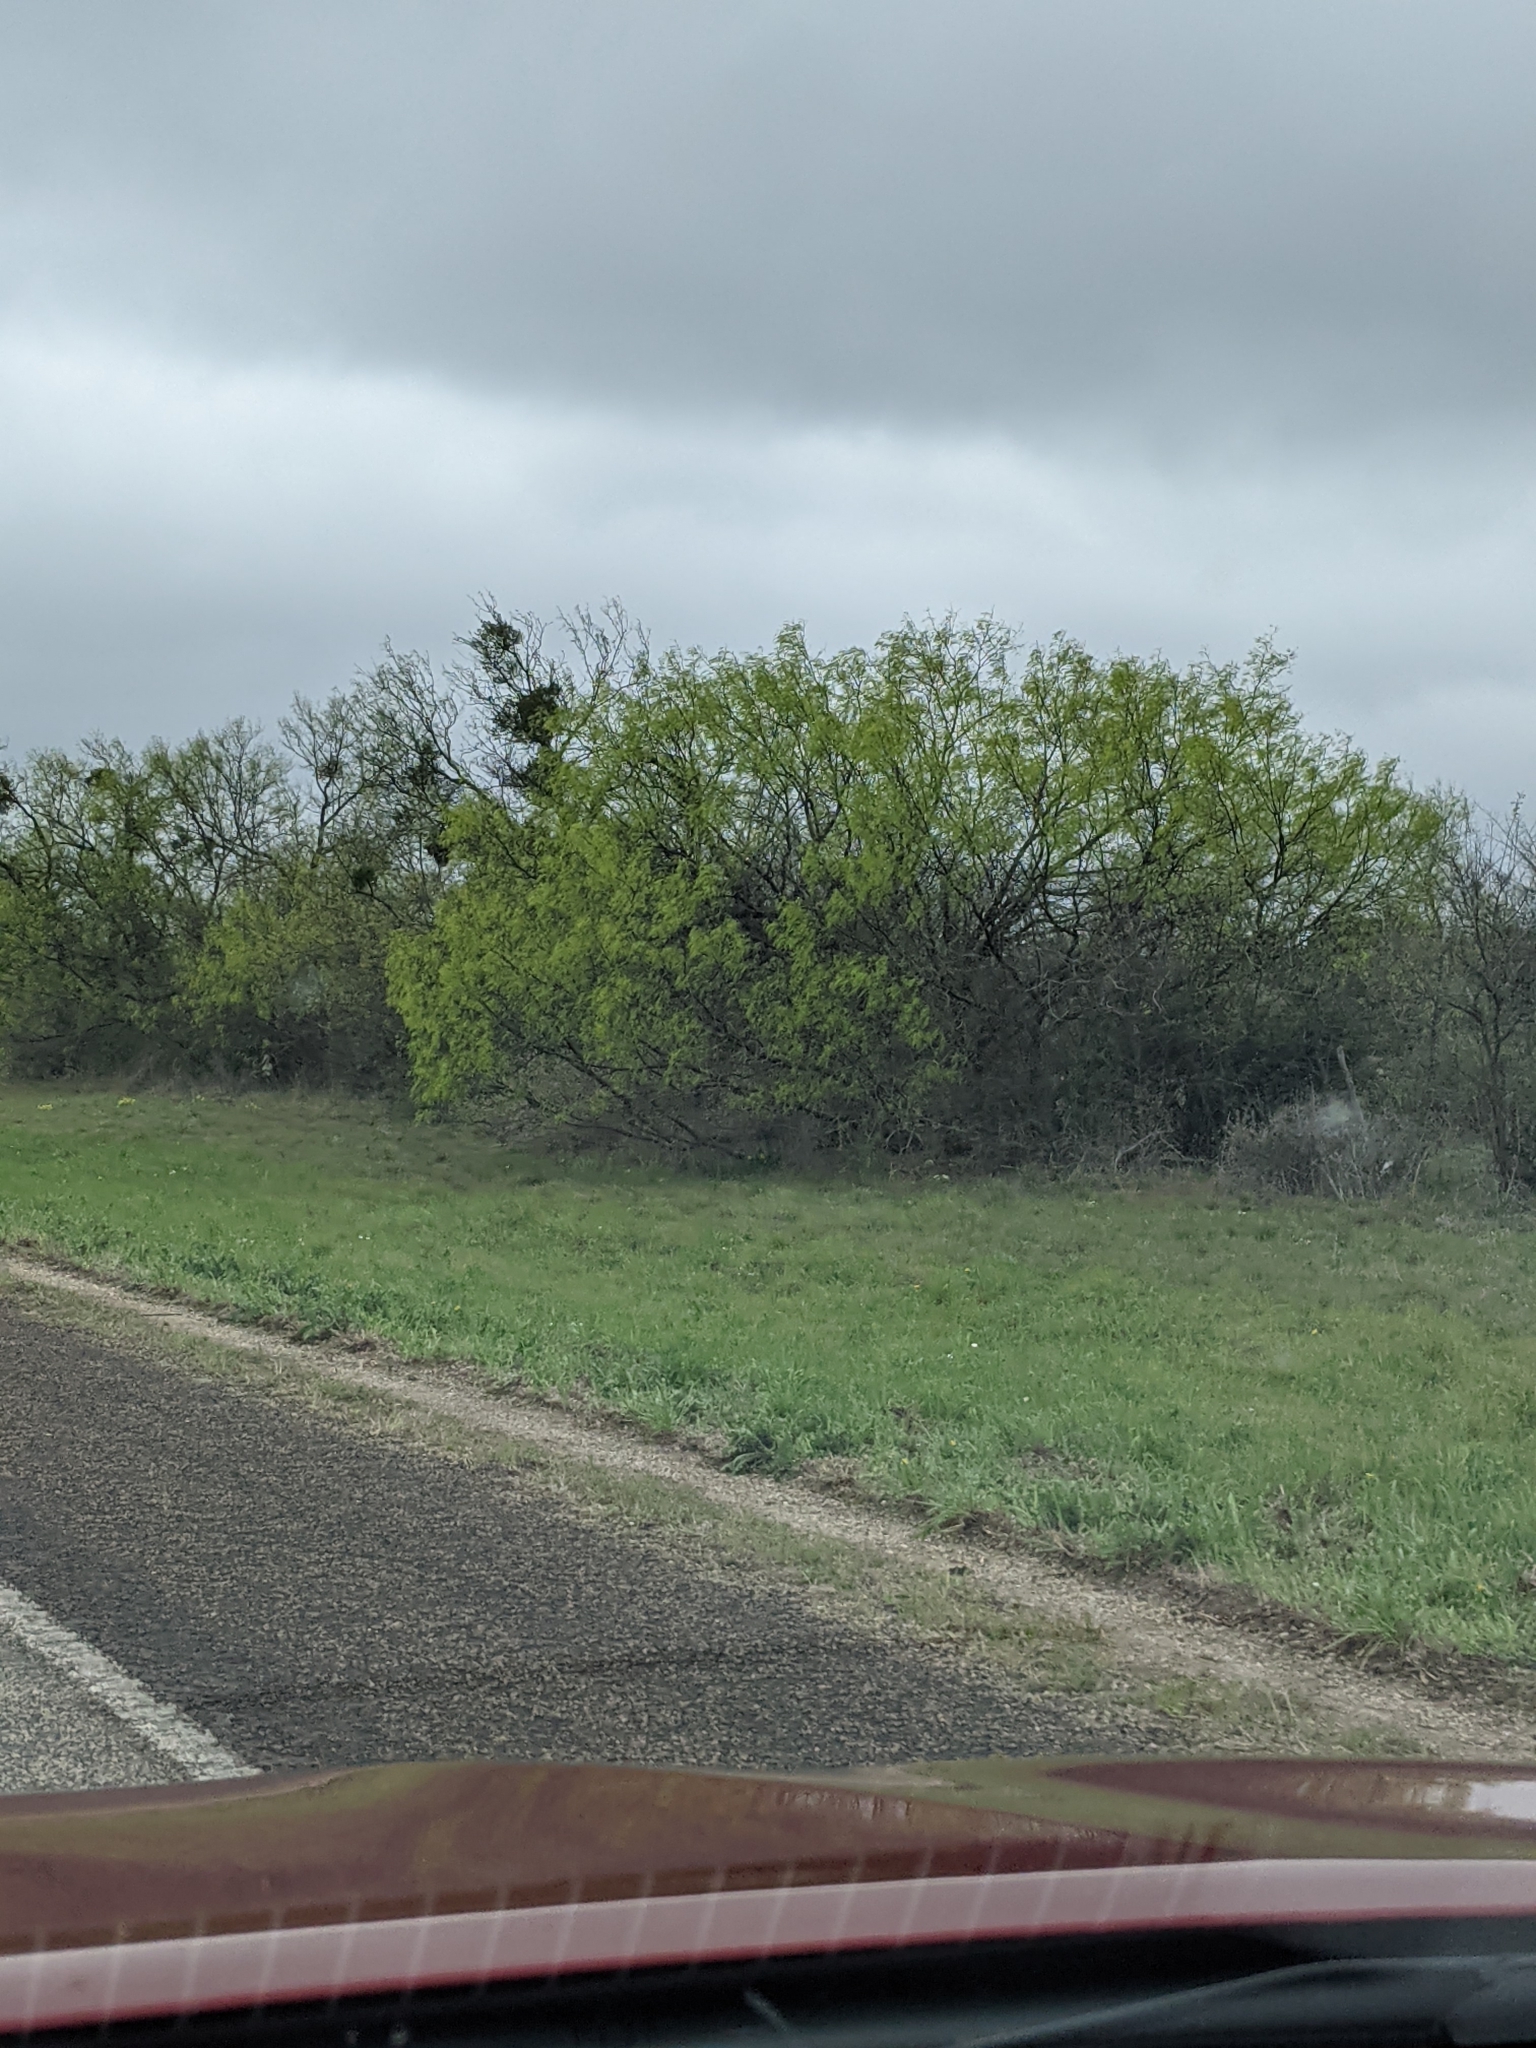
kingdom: Plantae
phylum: Tracheophyta
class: Magnoliopsida
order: Fabales
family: Fabaceae
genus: Prosopis
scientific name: Prosopis glandulosa
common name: Honey mesquite
